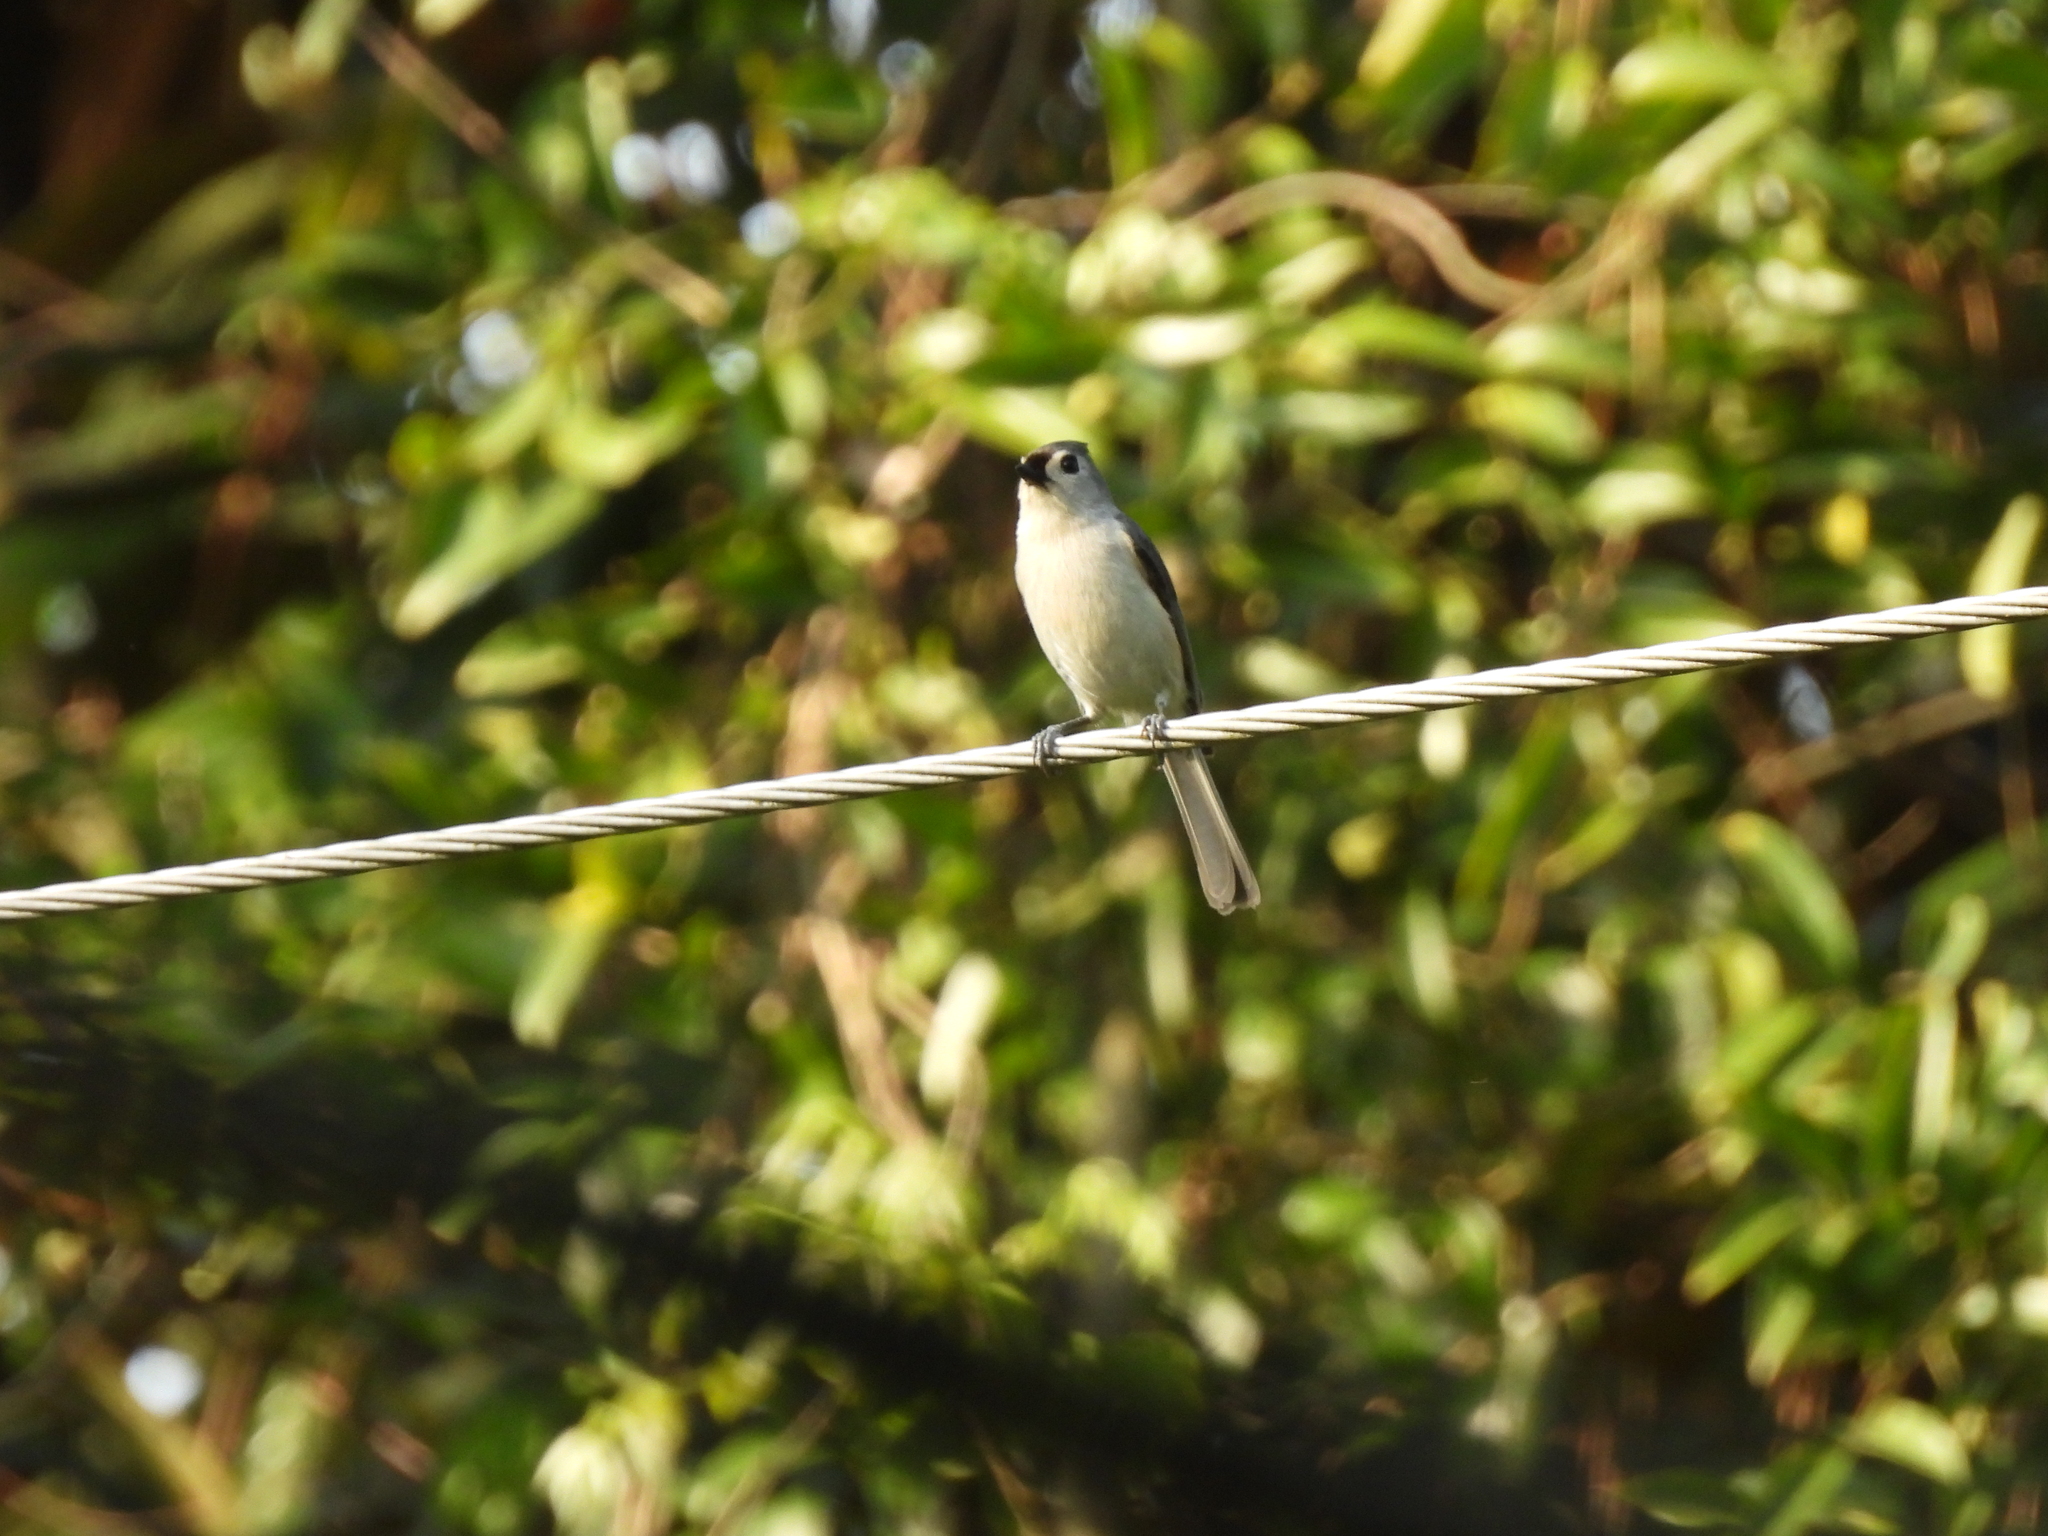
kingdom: Animalia
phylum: Chordata
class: Aves
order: Passeriformes
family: Paridae
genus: Baeolophus
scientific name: Baeolophus bicolor
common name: Tufted titmouse
